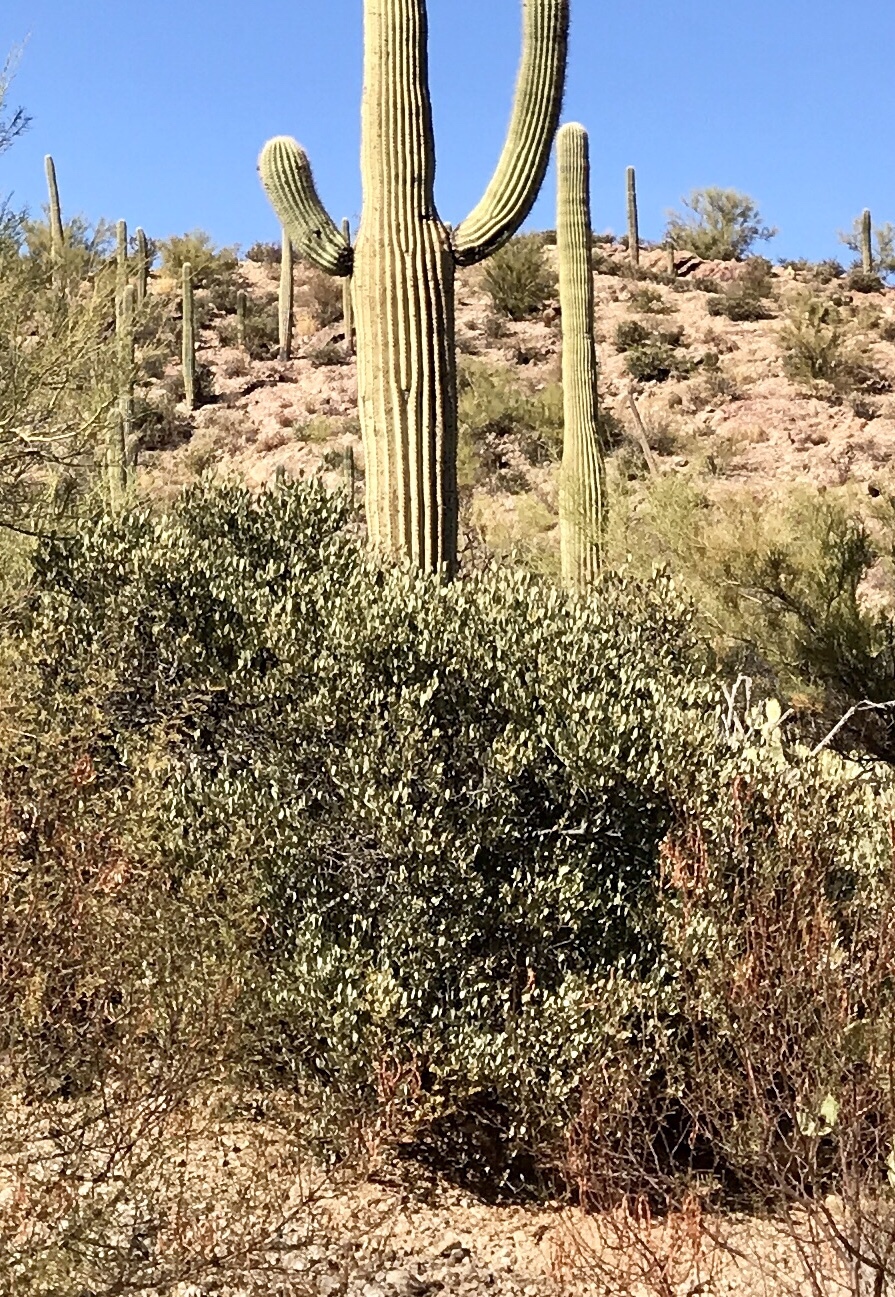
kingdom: Plantae
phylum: Tracheophyta
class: Magnoliopsida
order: Caryophyllales
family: Simmondsiaceae
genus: Simmondsia
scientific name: Simmondsia chinensis
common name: Jojoba
